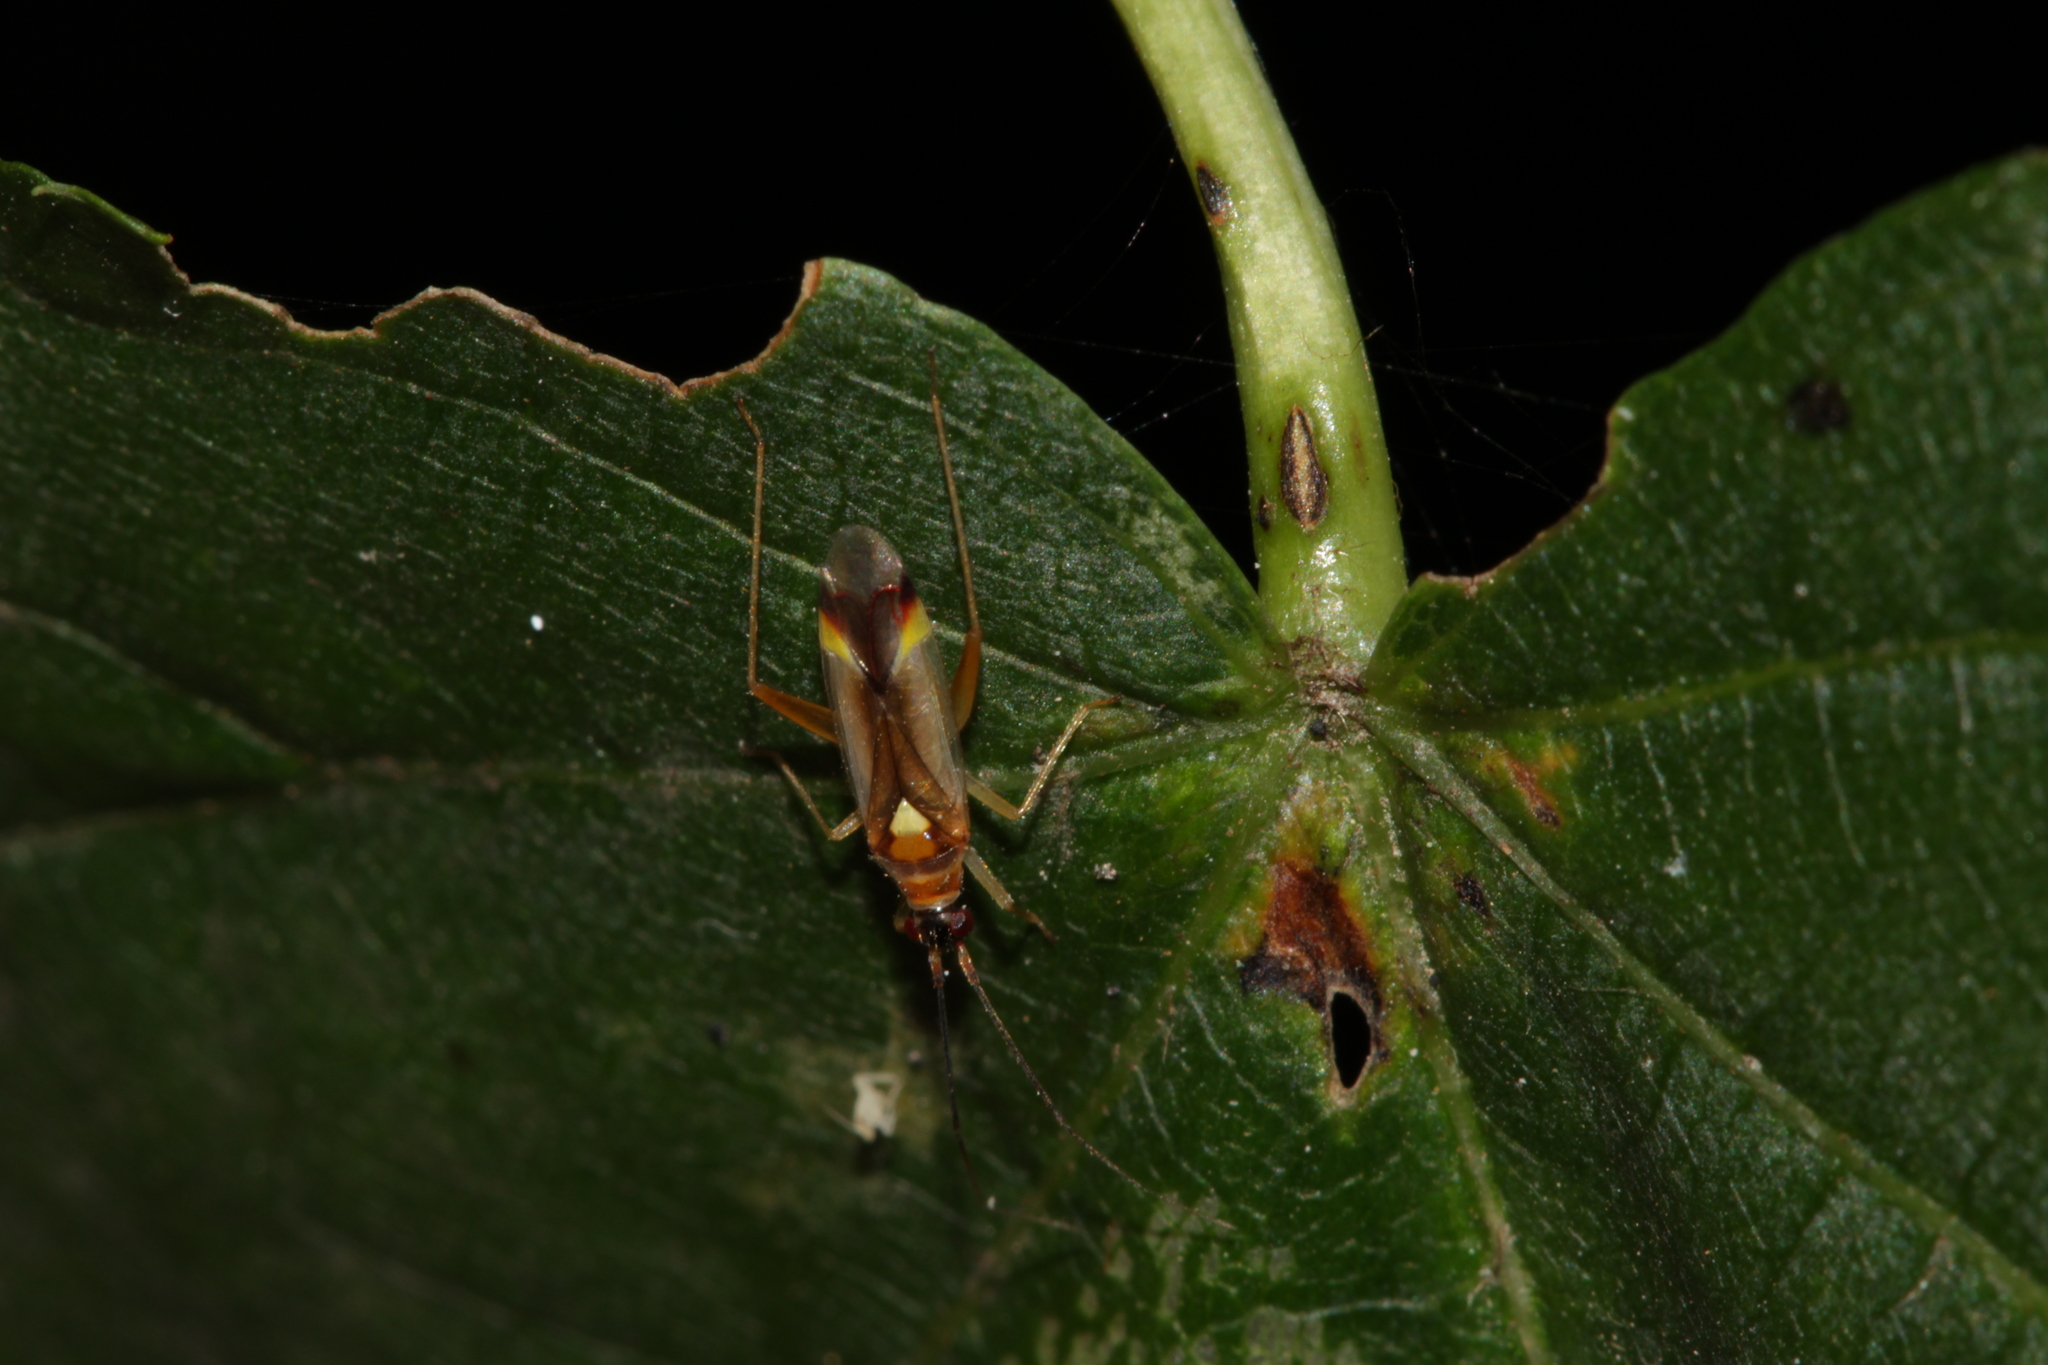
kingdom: Animalia
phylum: Arthropoda
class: Insecta
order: Hemiptera
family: Miridae
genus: Campyloneura
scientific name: Campyloneura virgula
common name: Predatory bug
